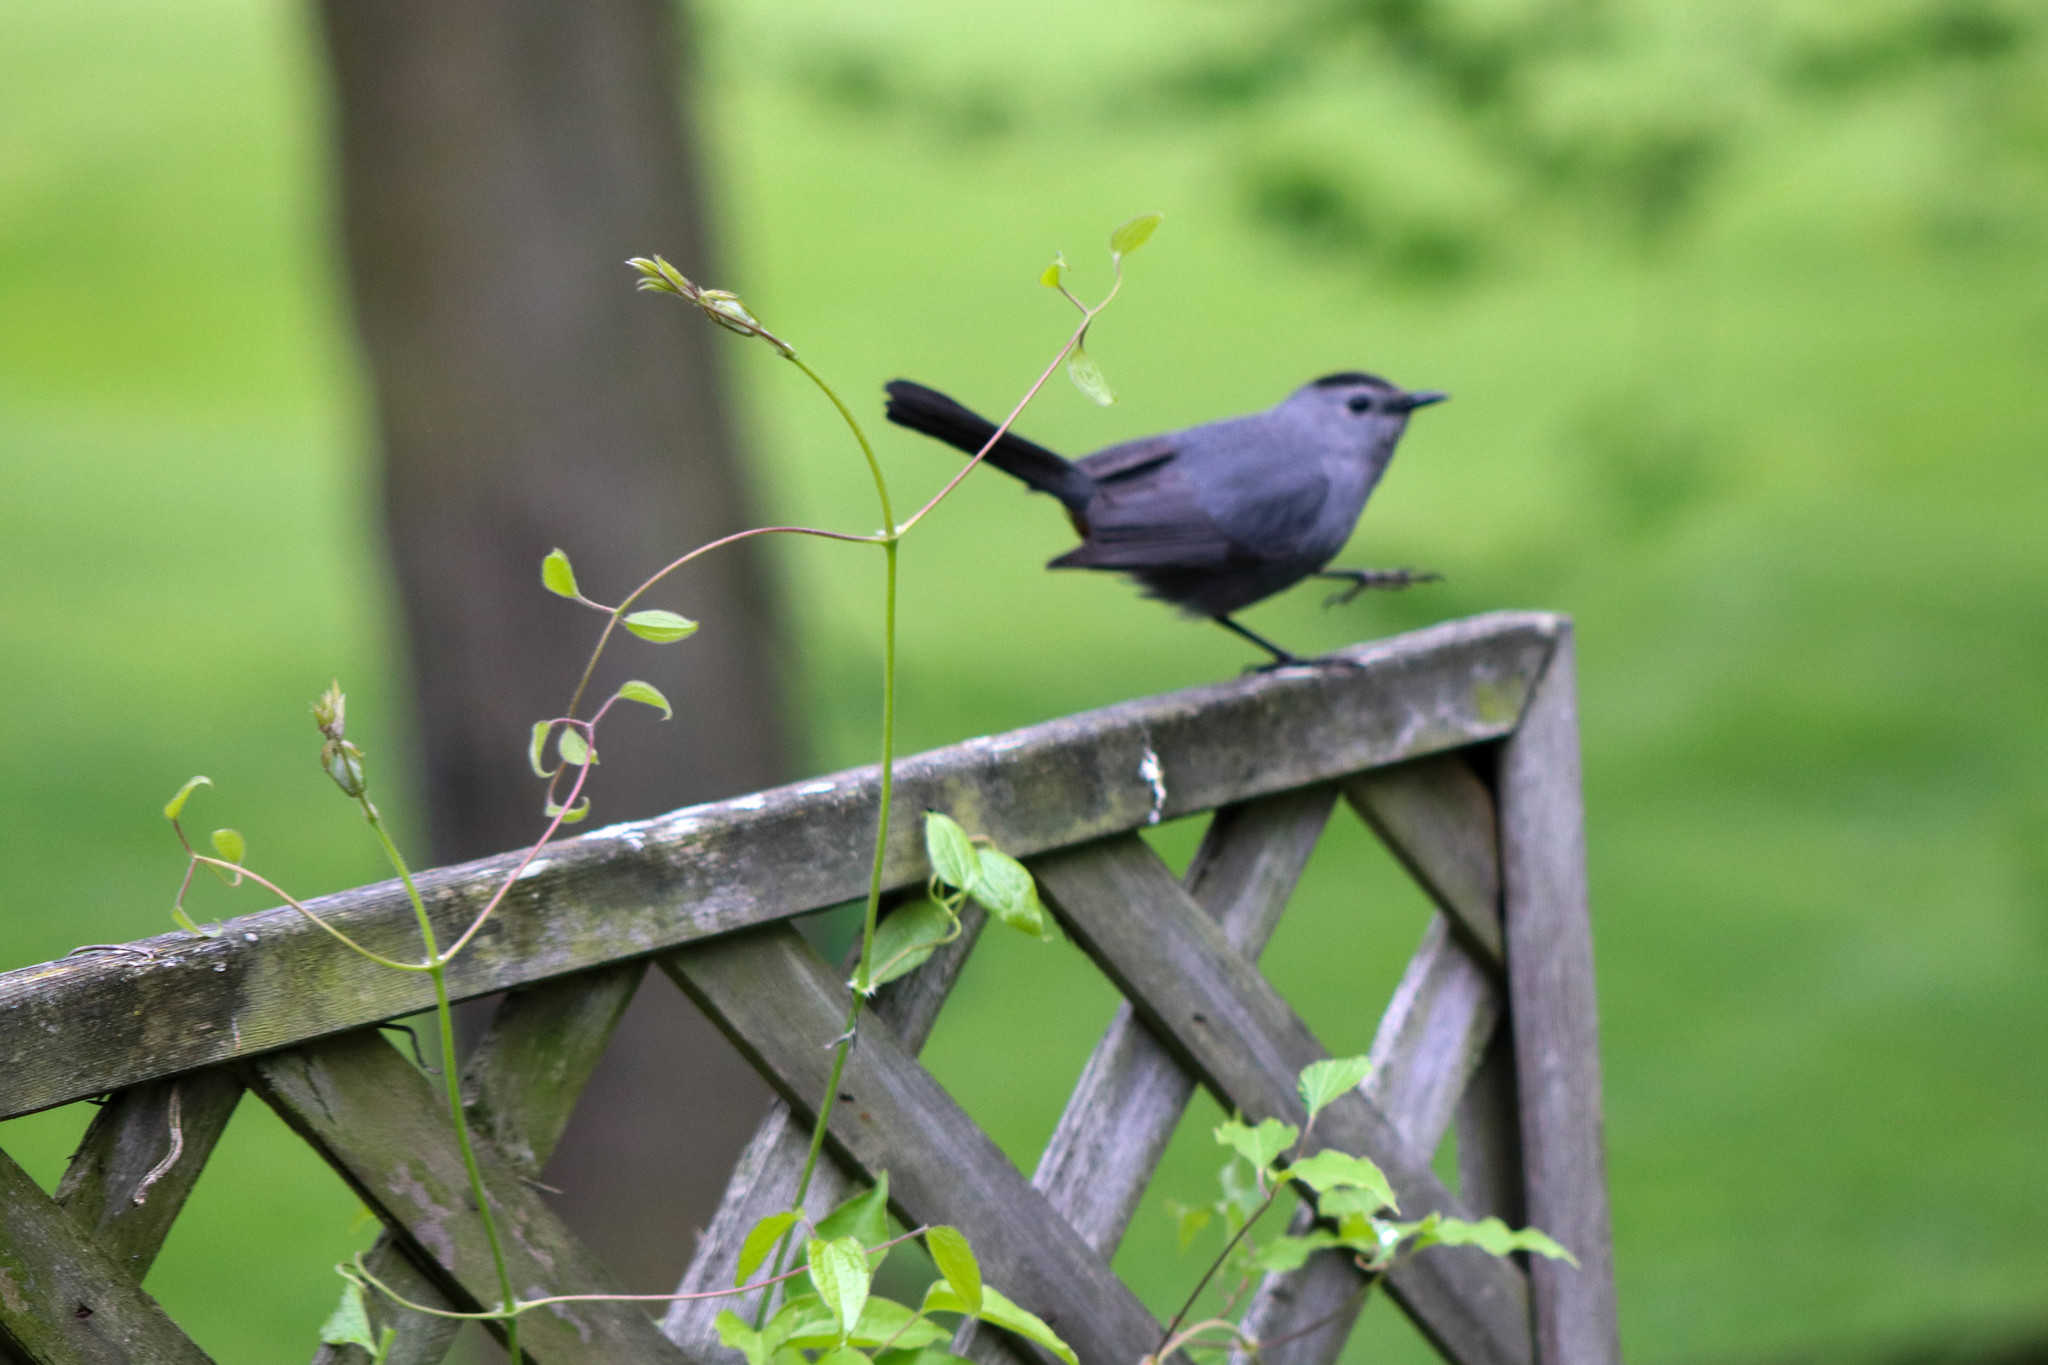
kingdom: Animalia
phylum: Chordata
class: Aves
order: Passeriformes
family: Mimidae
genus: Dumetella
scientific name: Dumetella carolinensis
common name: Gray catbird
